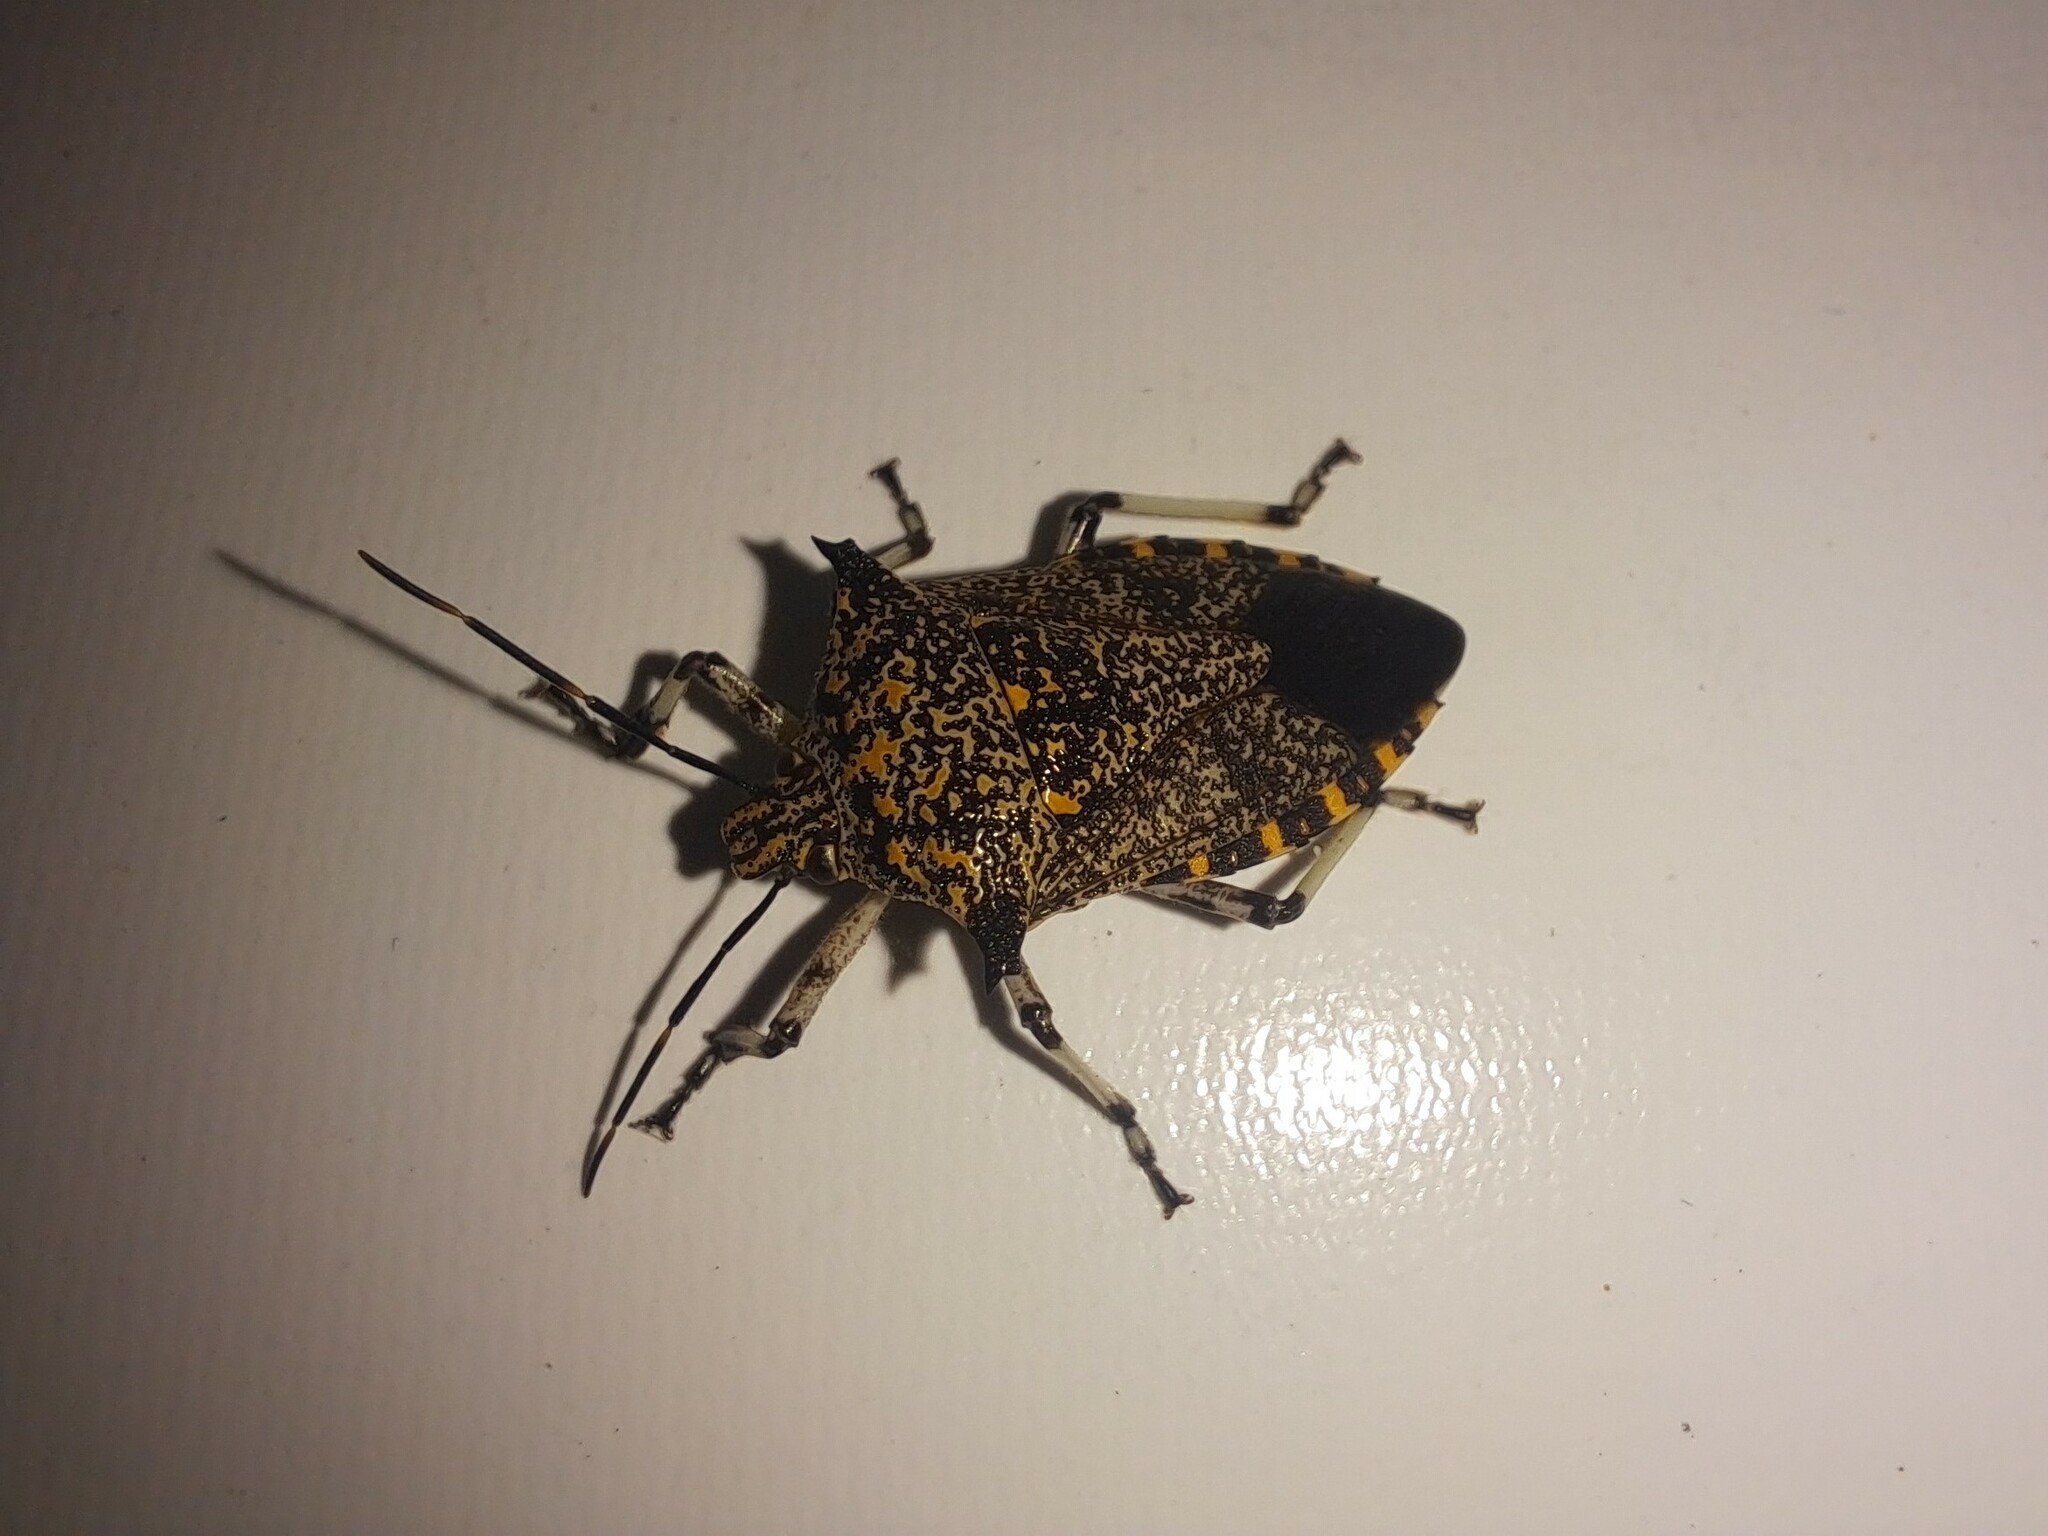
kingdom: Animalia
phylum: Arthropoda
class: Insecta
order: Hemiptera
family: Pentatomidae
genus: Alcaeorrhynchus
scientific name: Alcaeorrhynchus grandis
